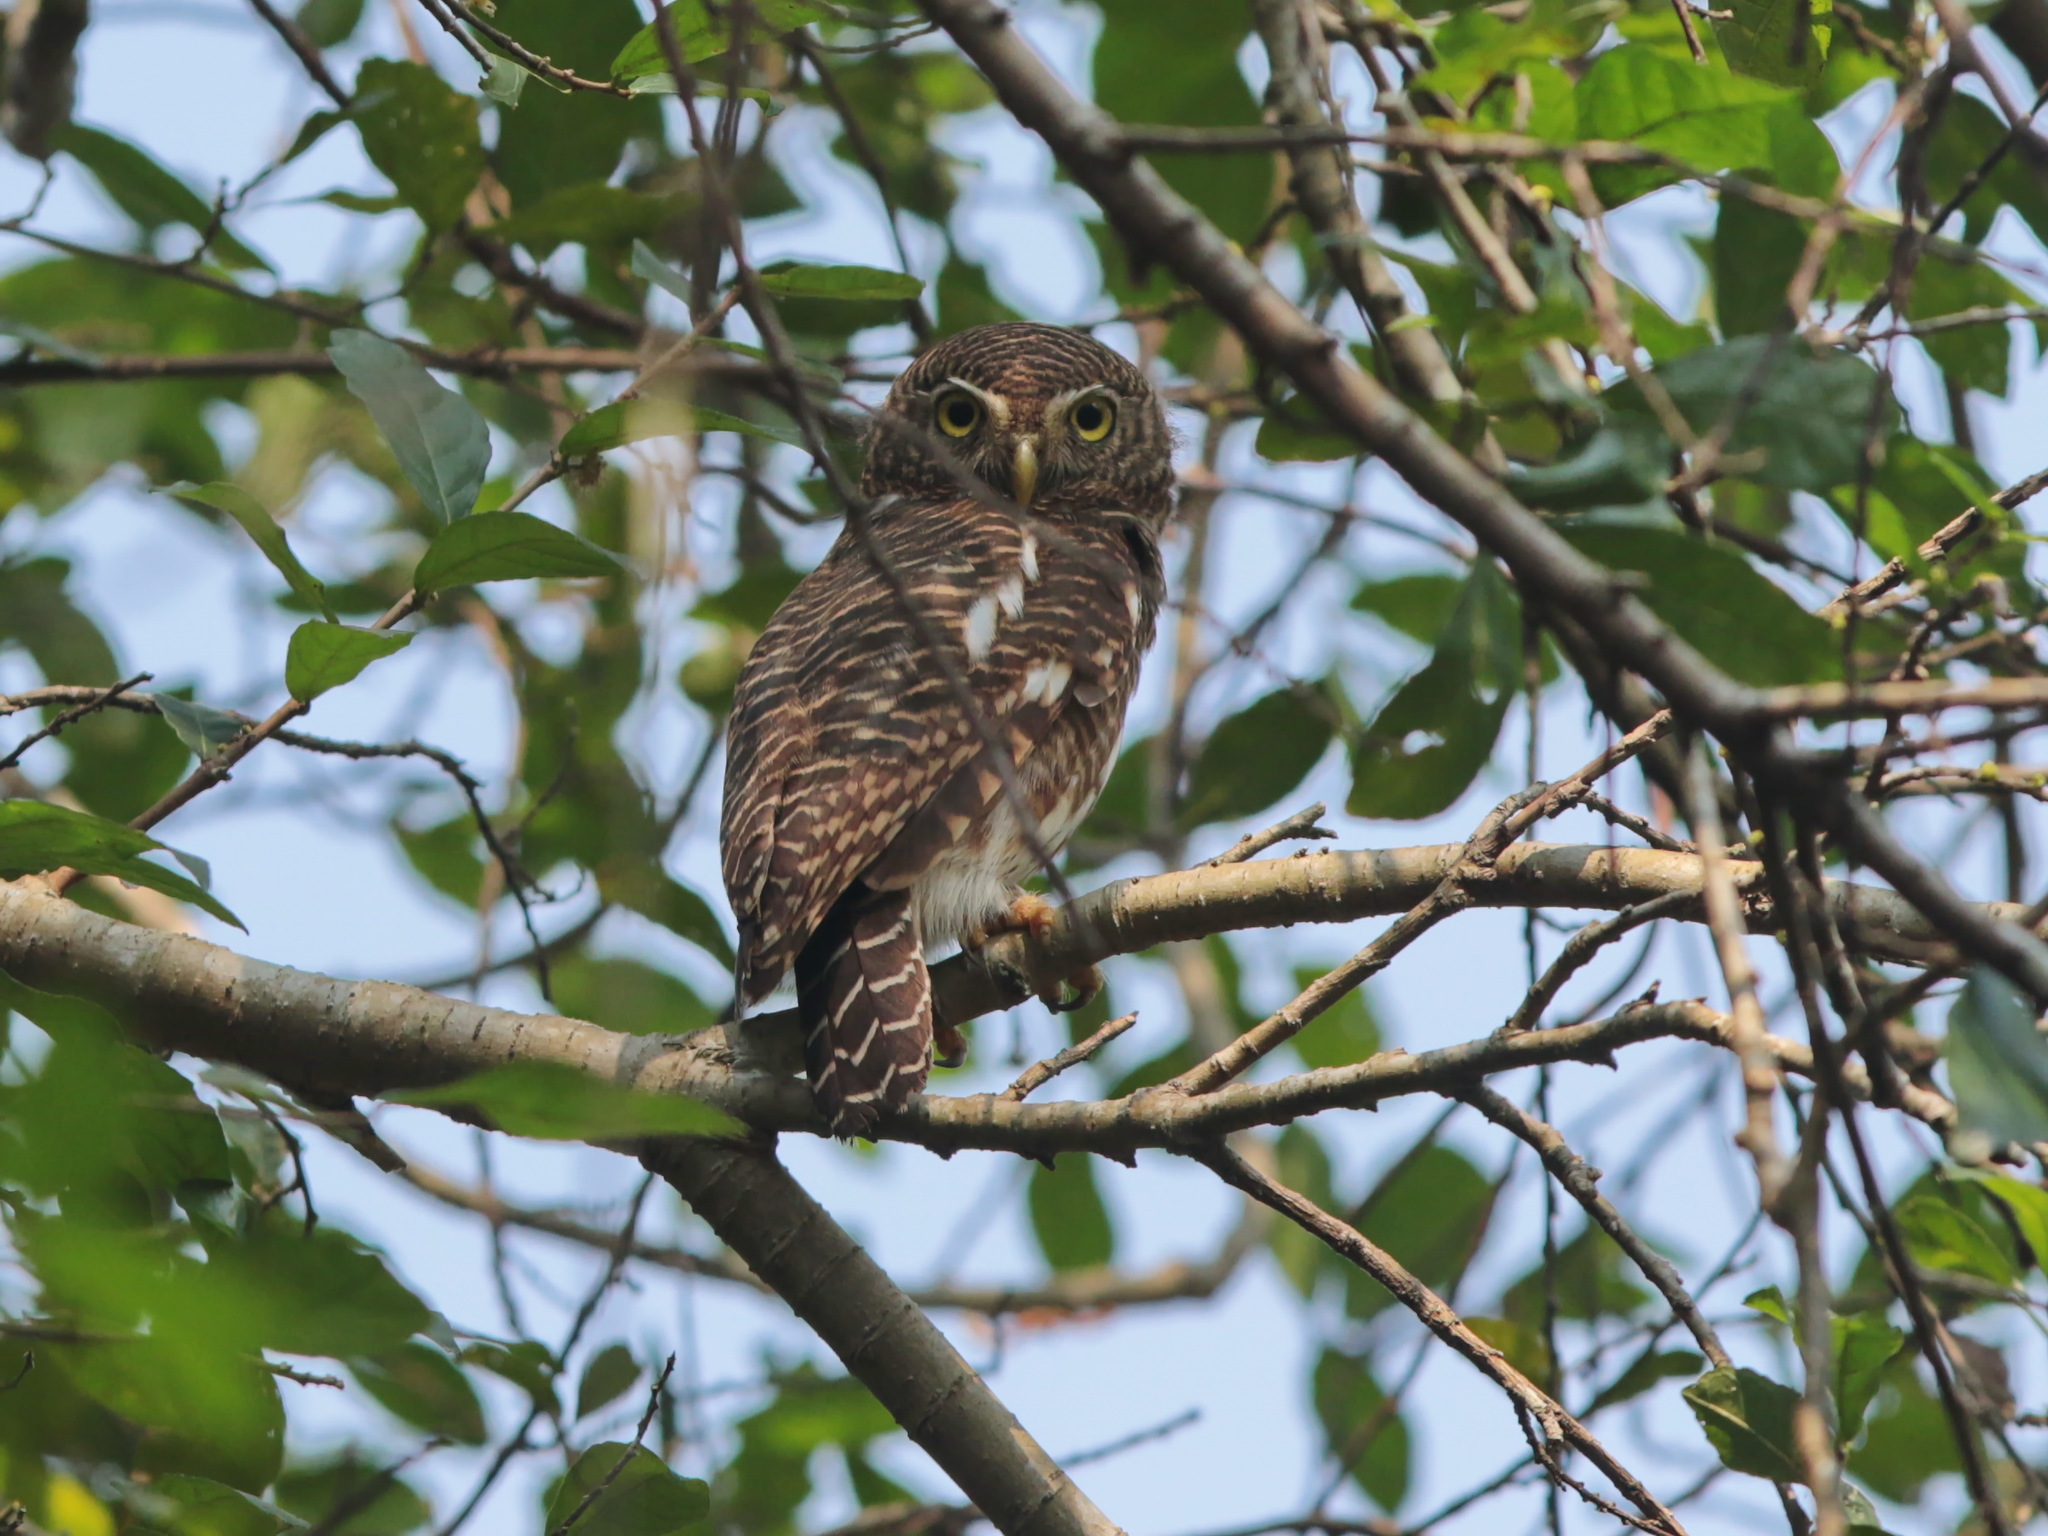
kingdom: Animalia
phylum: Chordata
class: Aves
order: Strigiformes
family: Strigidae
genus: Glaucidium
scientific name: Glaucidium cuculoides
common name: Asian barred owlet
